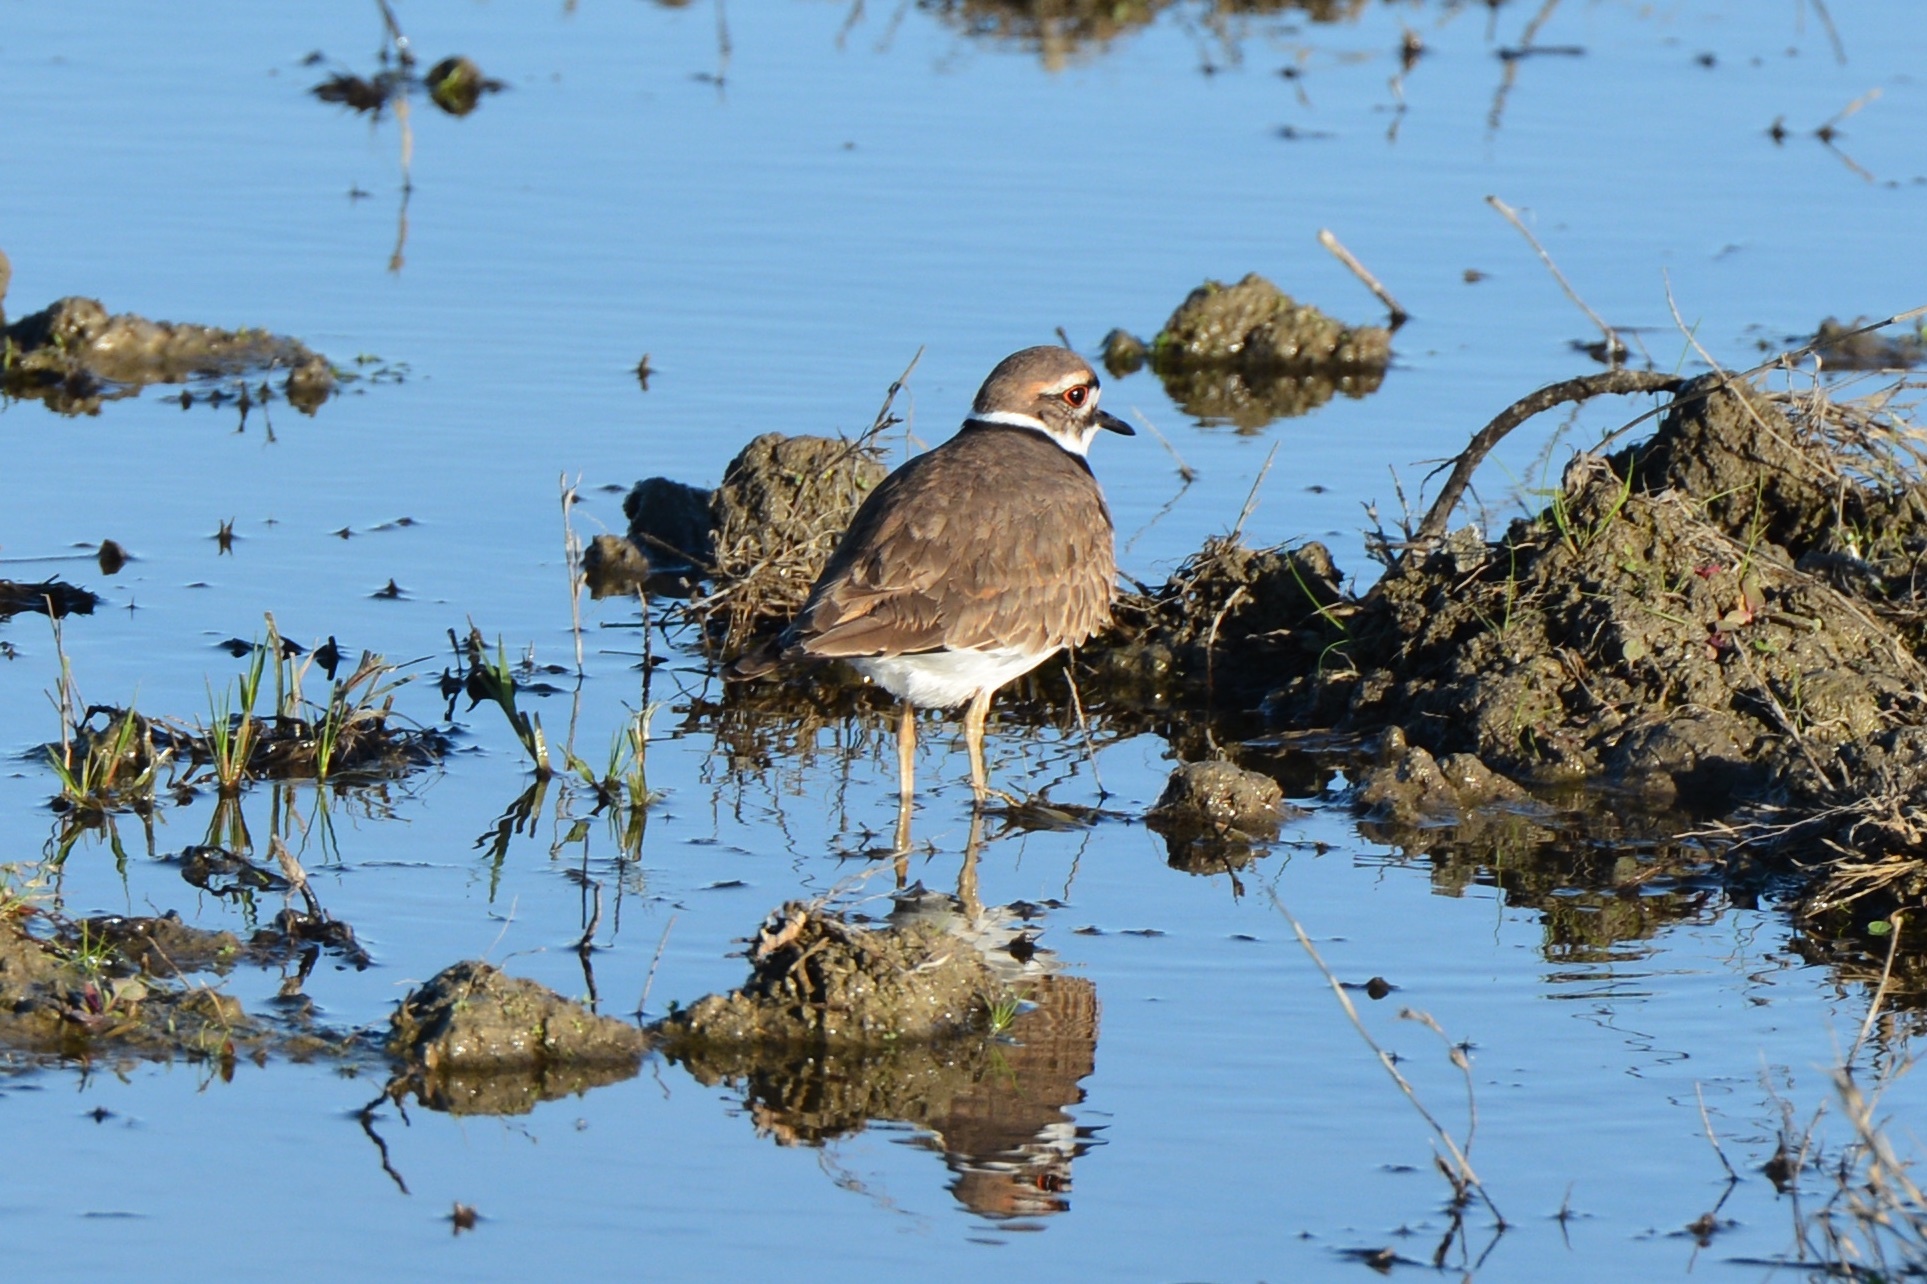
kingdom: Animalia
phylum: Chordata
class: Aves
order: Charadriiformes
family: Charadriidae
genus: Charadrius
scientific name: Charadrius vociferus
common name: Killdeer
